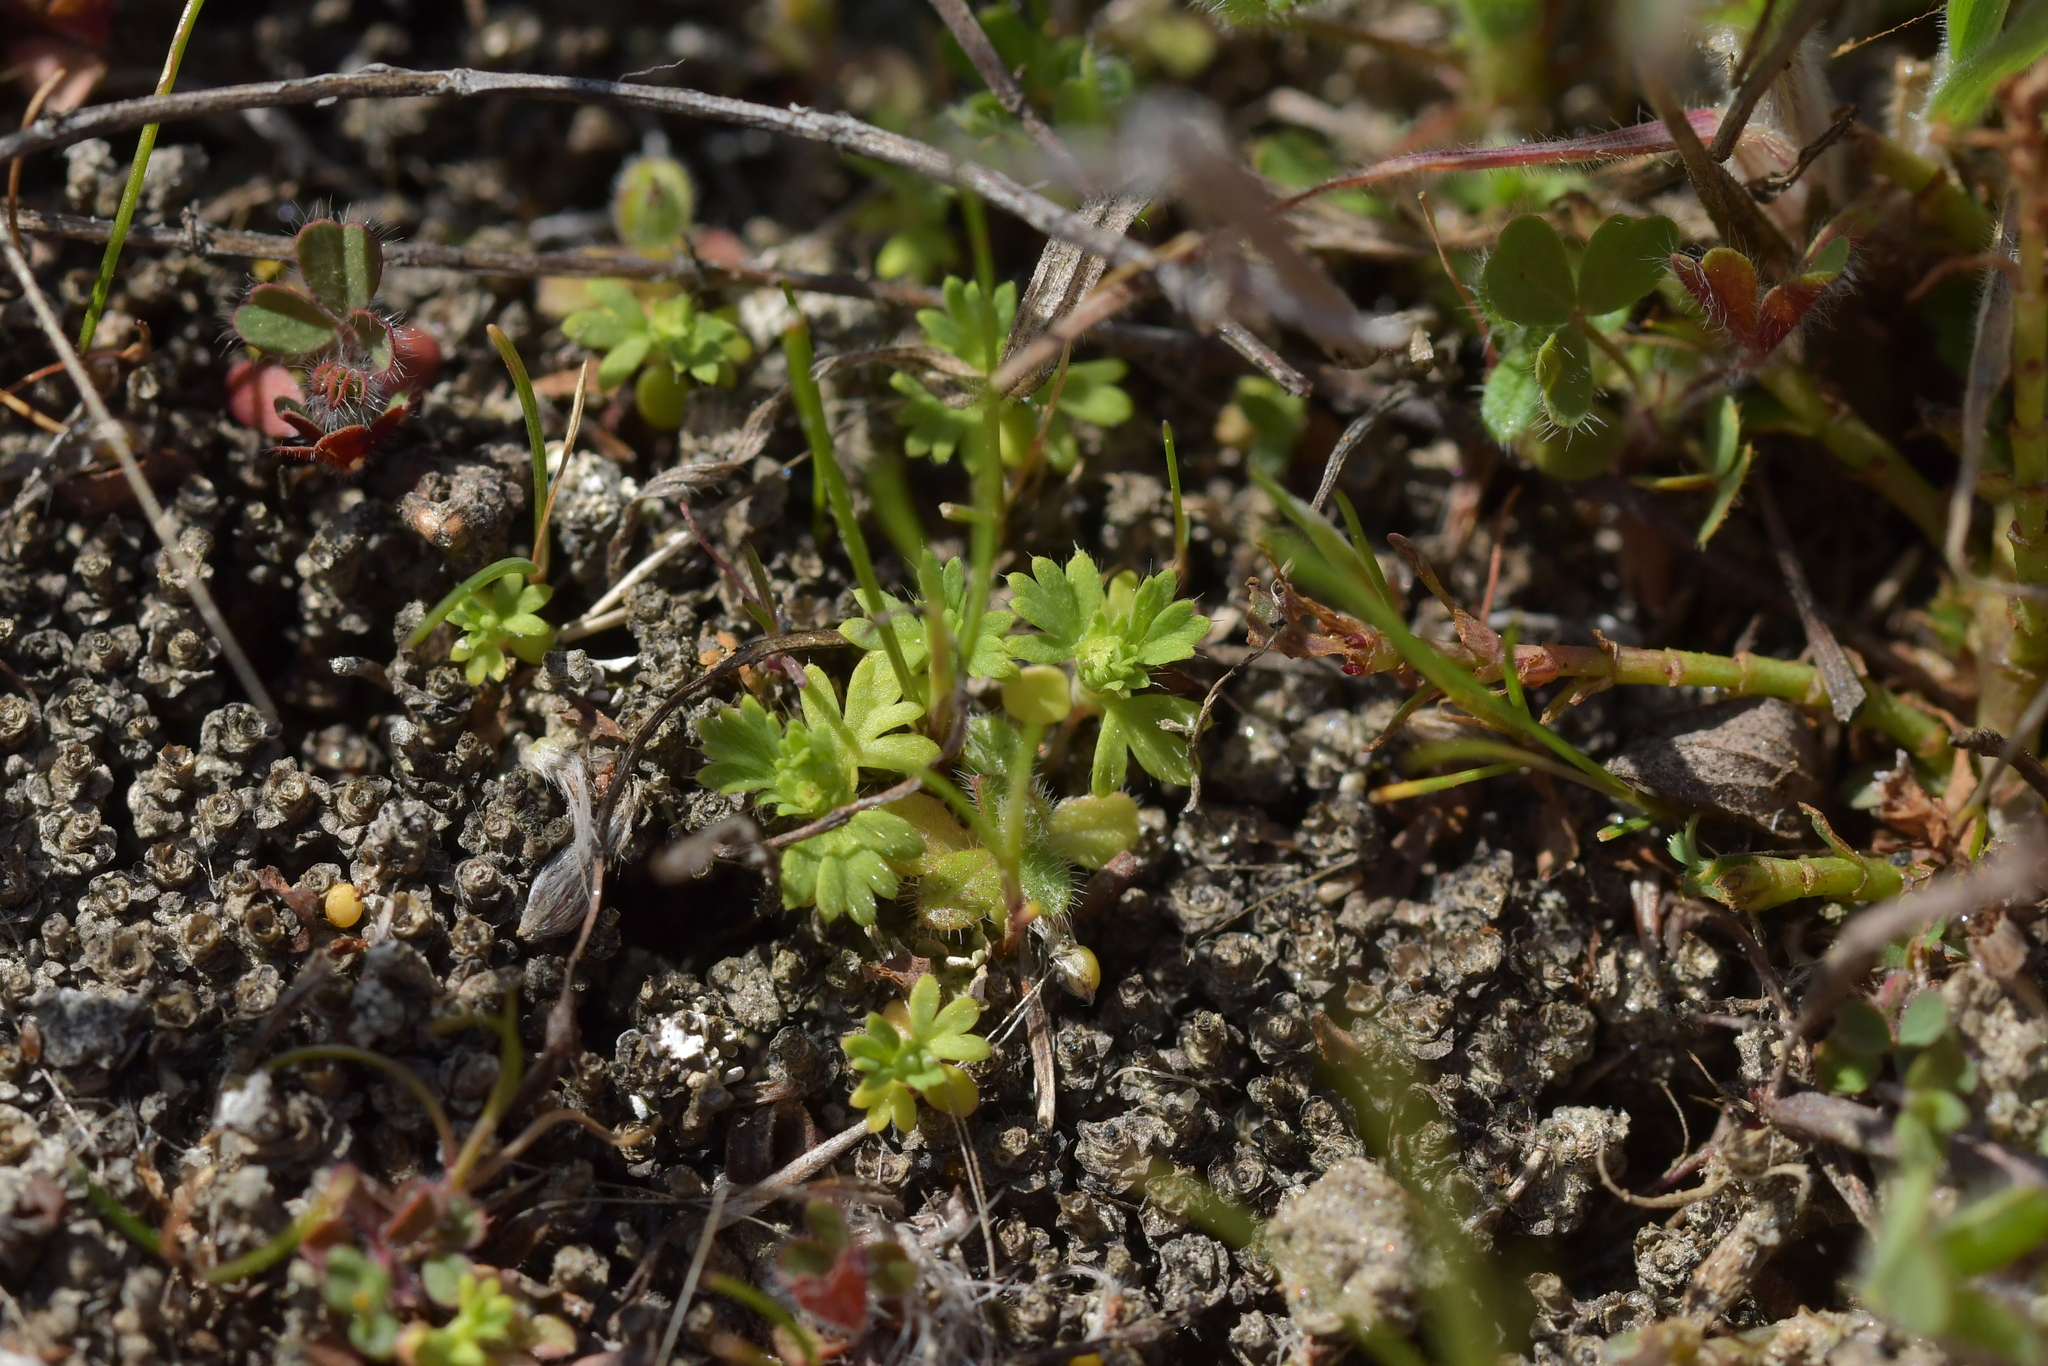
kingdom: Plantae
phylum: Tracheophyta
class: Magnoliopsida
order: Rosales
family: Rosaceae
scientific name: Rosaceae
